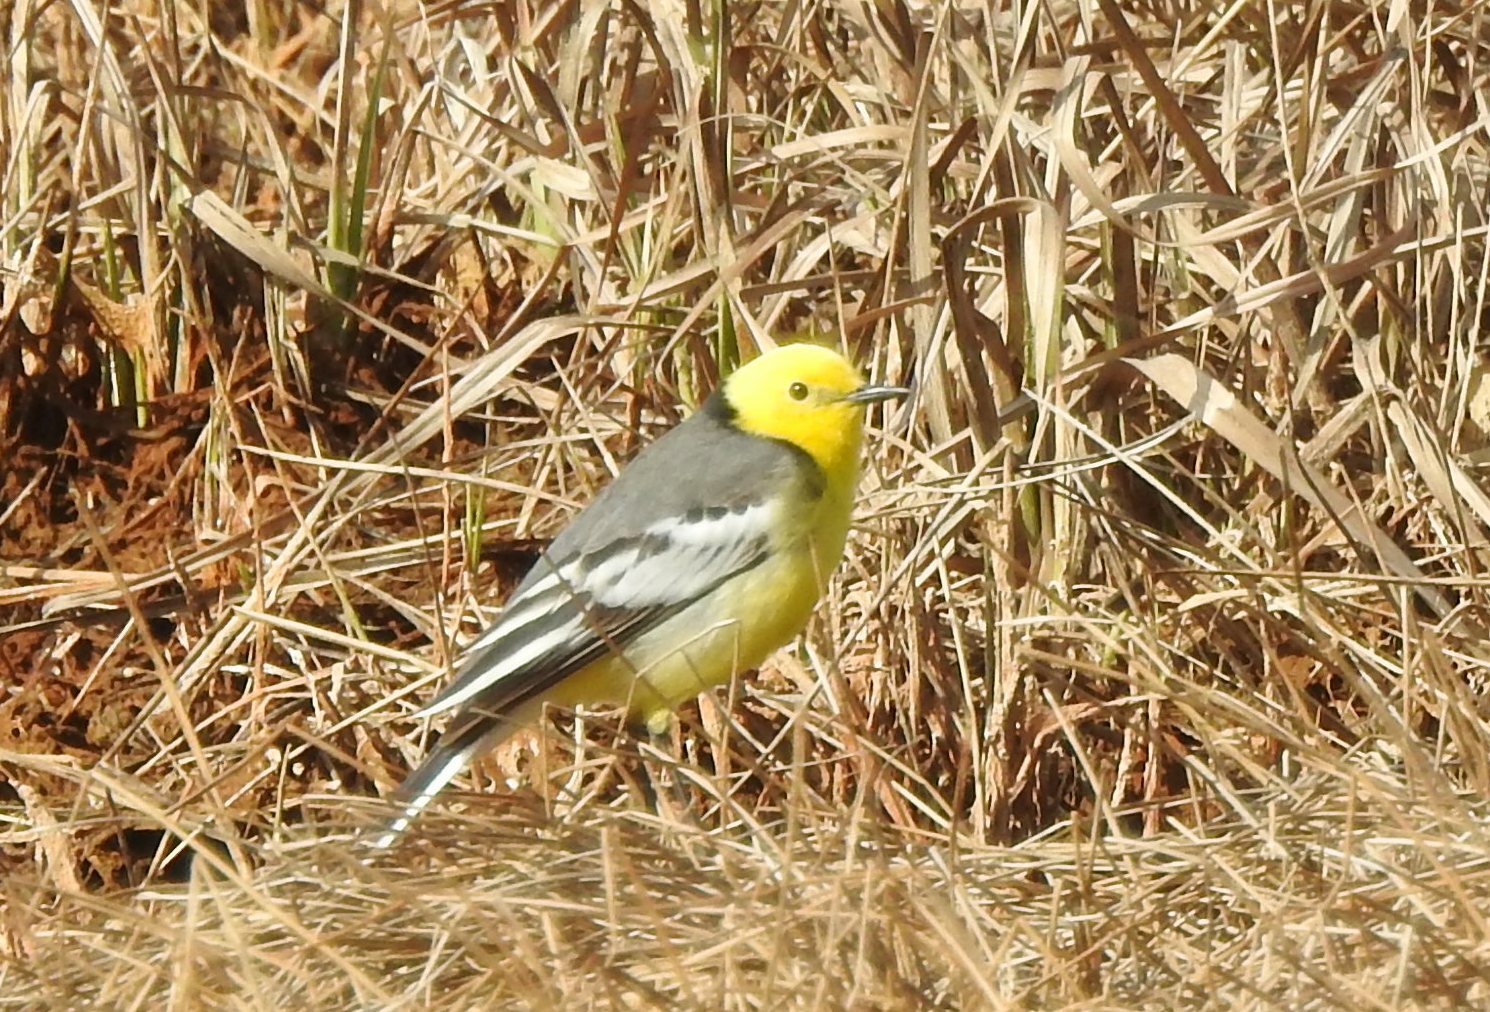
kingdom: Animalia
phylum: Chordata
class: Aves
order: Passeriformes
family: Motacillidae
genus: Motacilla
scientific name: Motacilla citreola
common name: Citrine wagtail
